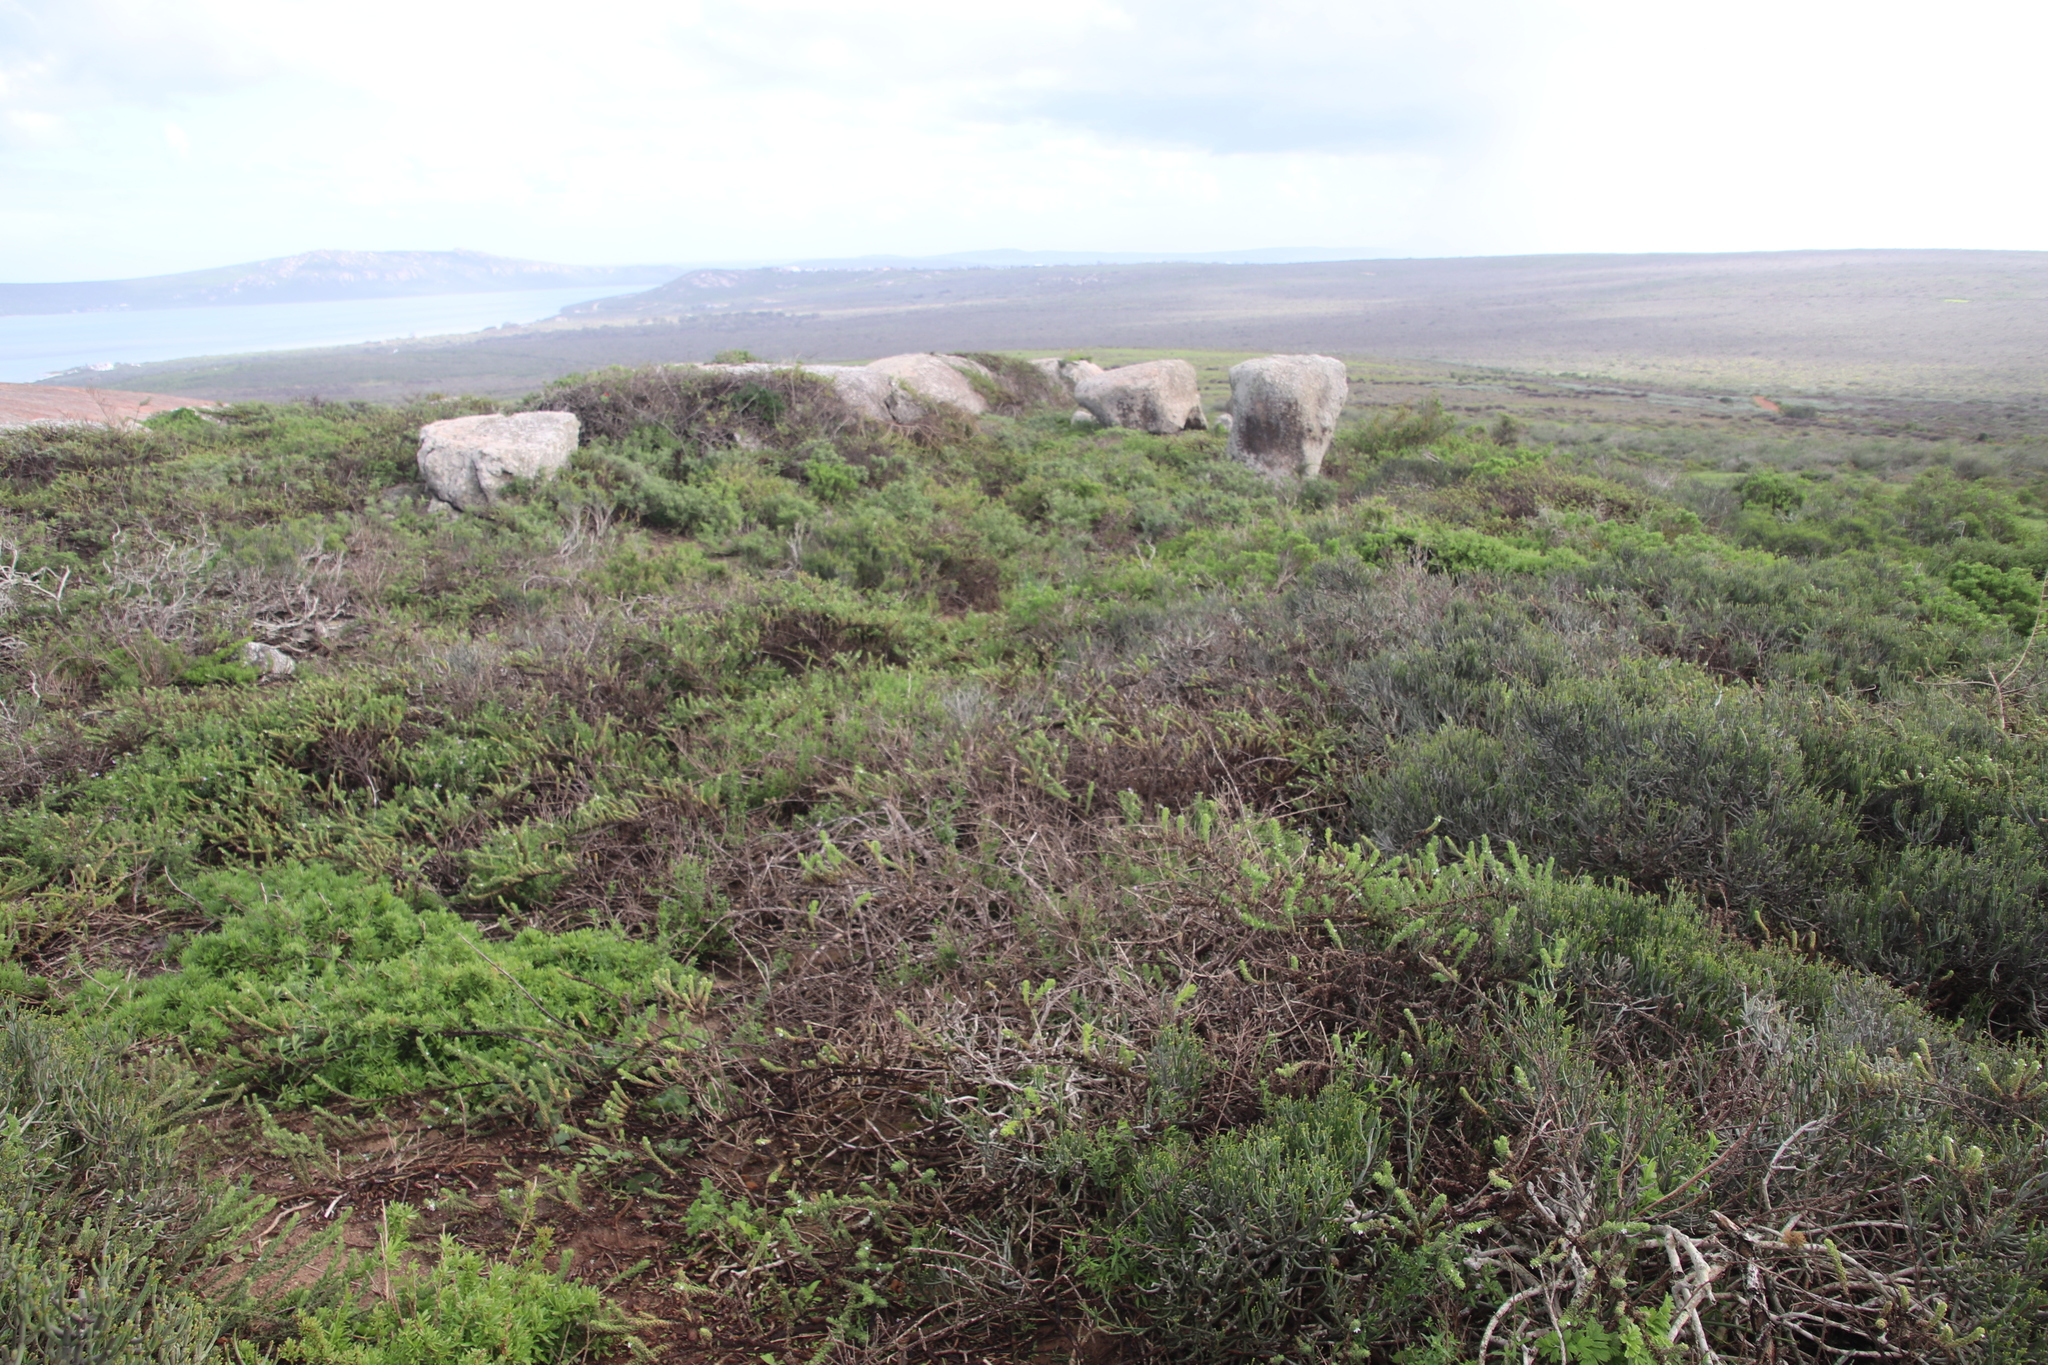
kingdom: Plantae
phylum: Tracheophyta
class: Magnoliopsida
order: Lamiales
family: Scrophulariaceae
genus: Oftia
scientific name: Oftia africana
